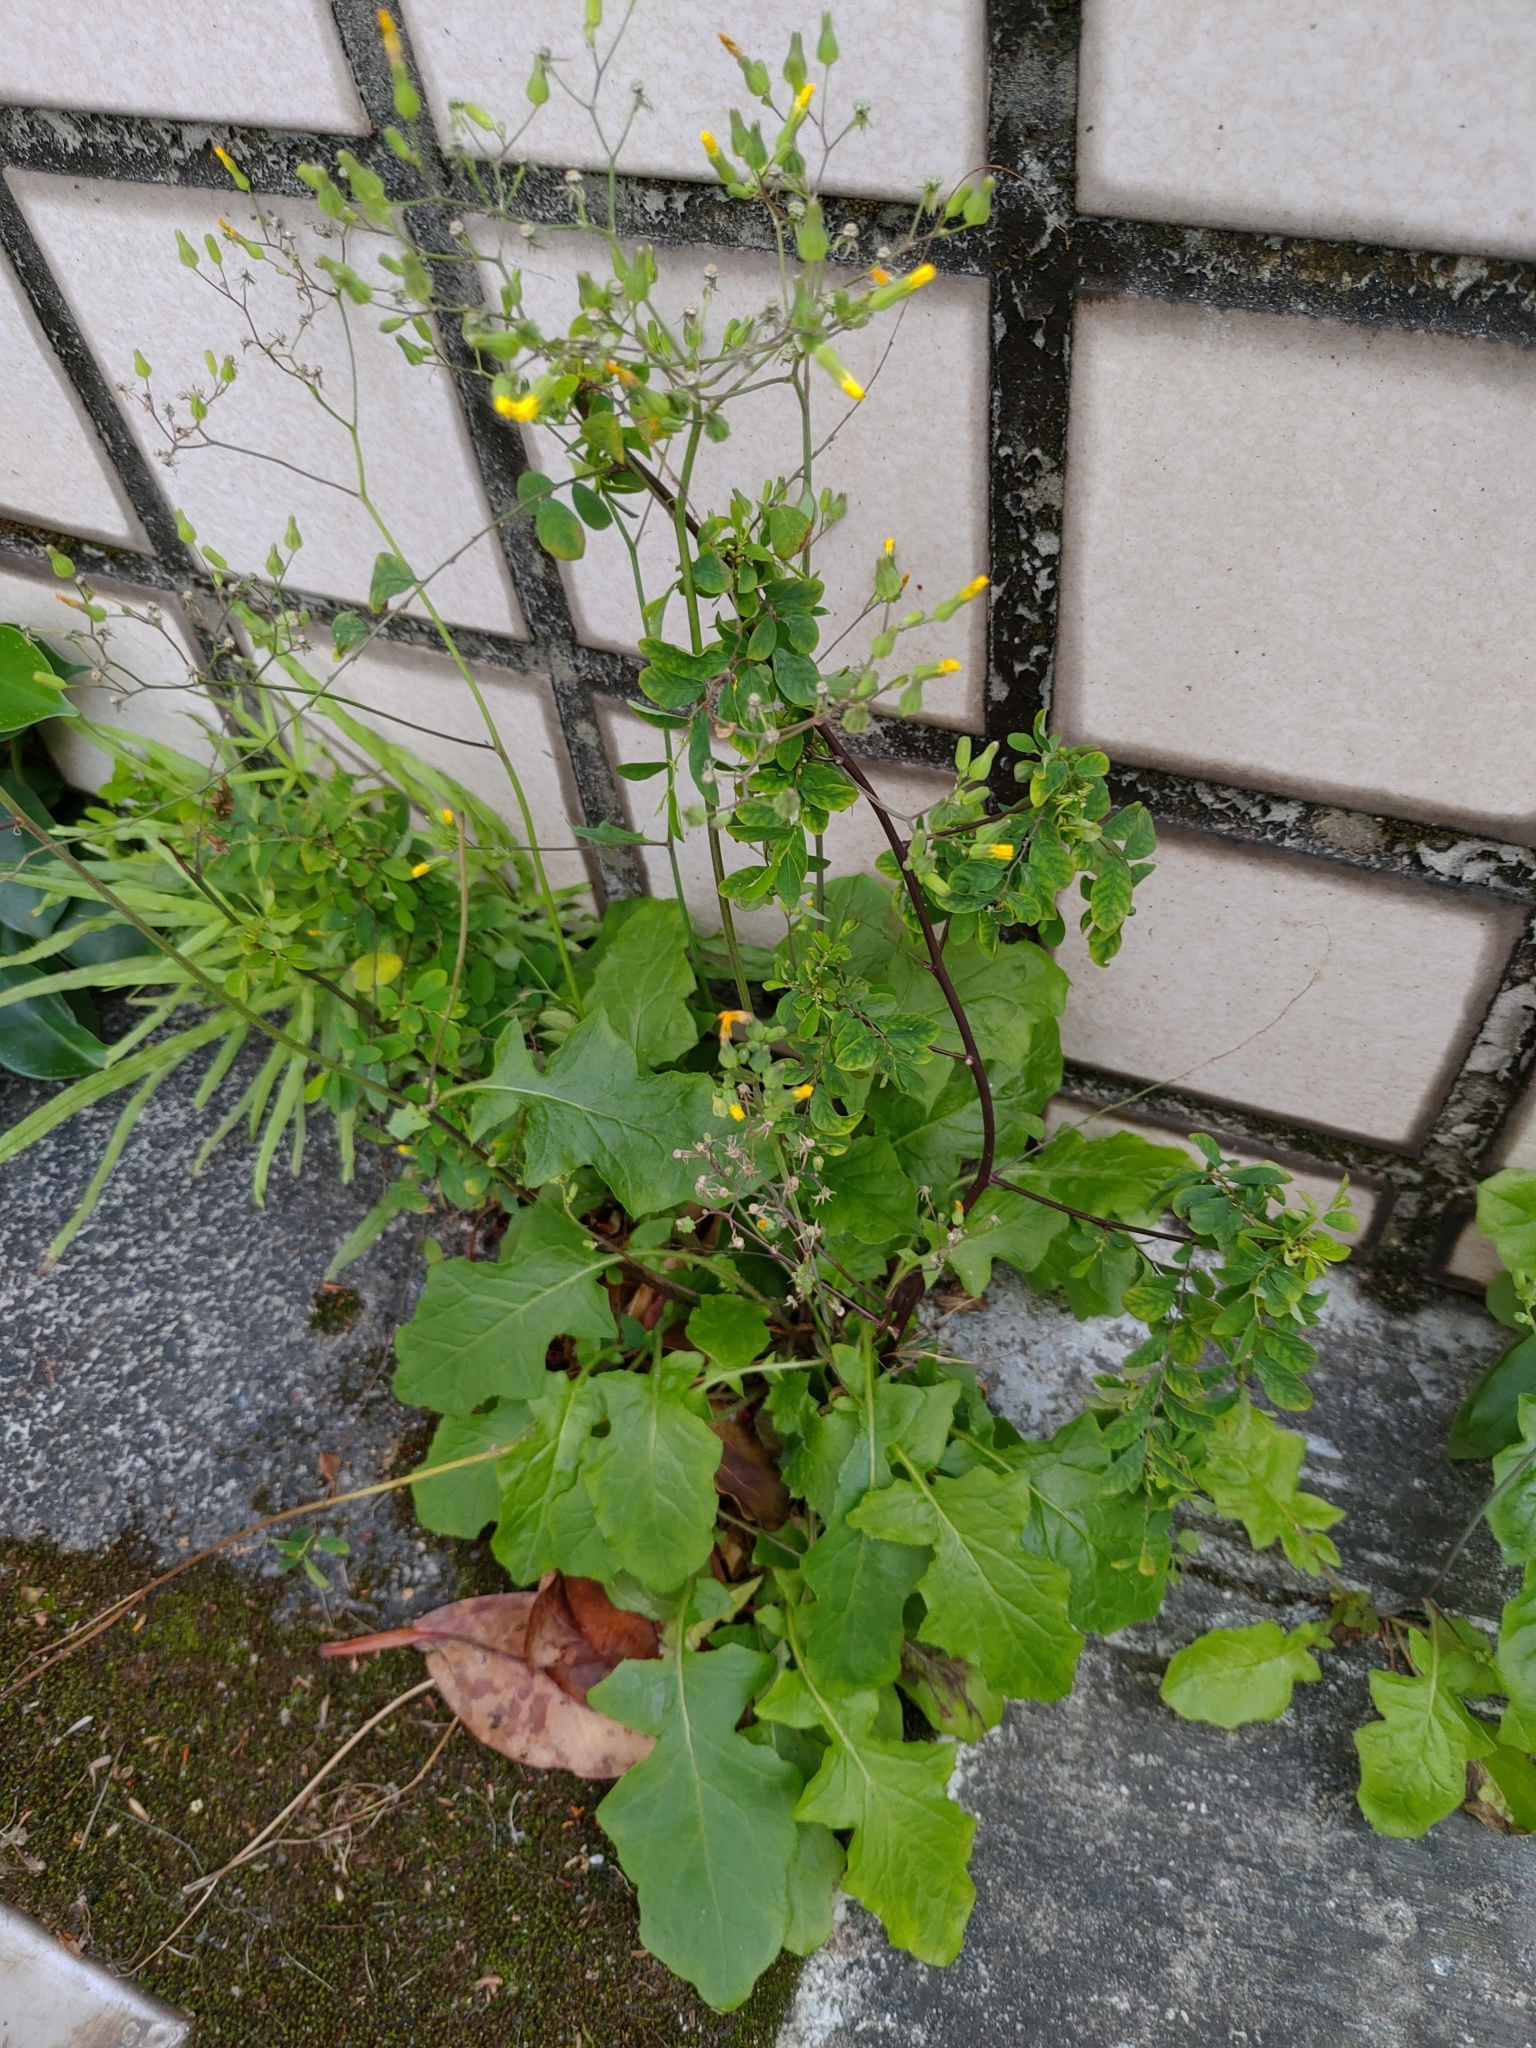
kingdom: Plantae
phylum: Tracheophyta
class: Magnoliopsida
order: Asterales
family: Asteraceae
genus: Youngia
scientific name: Youngia japonica
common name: Oriental false hawksbeard
